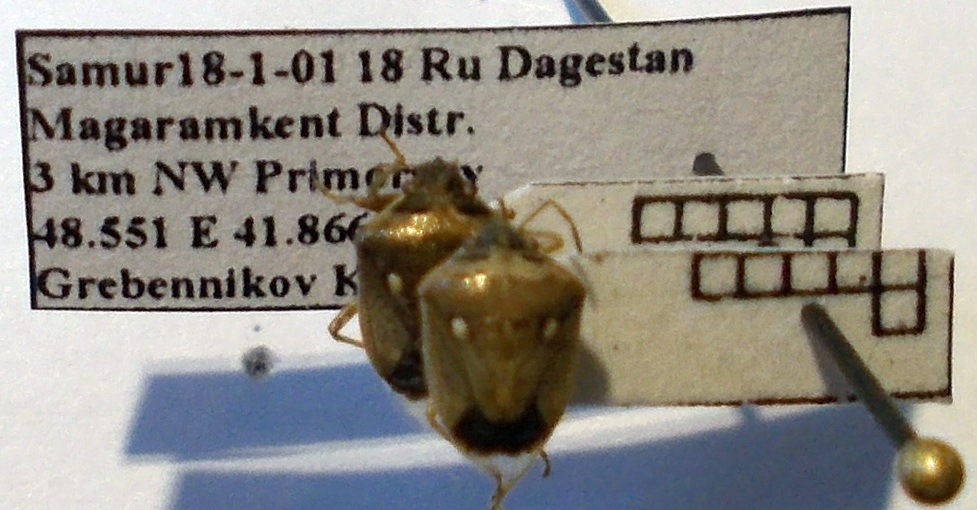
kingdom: Animalia
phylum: Arthropoda
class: Insecta
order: Hemiptera
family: Pentatomidae
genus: Eysarcoris
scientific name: Eysarcoris ventralis
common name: White-spotted stink bug
